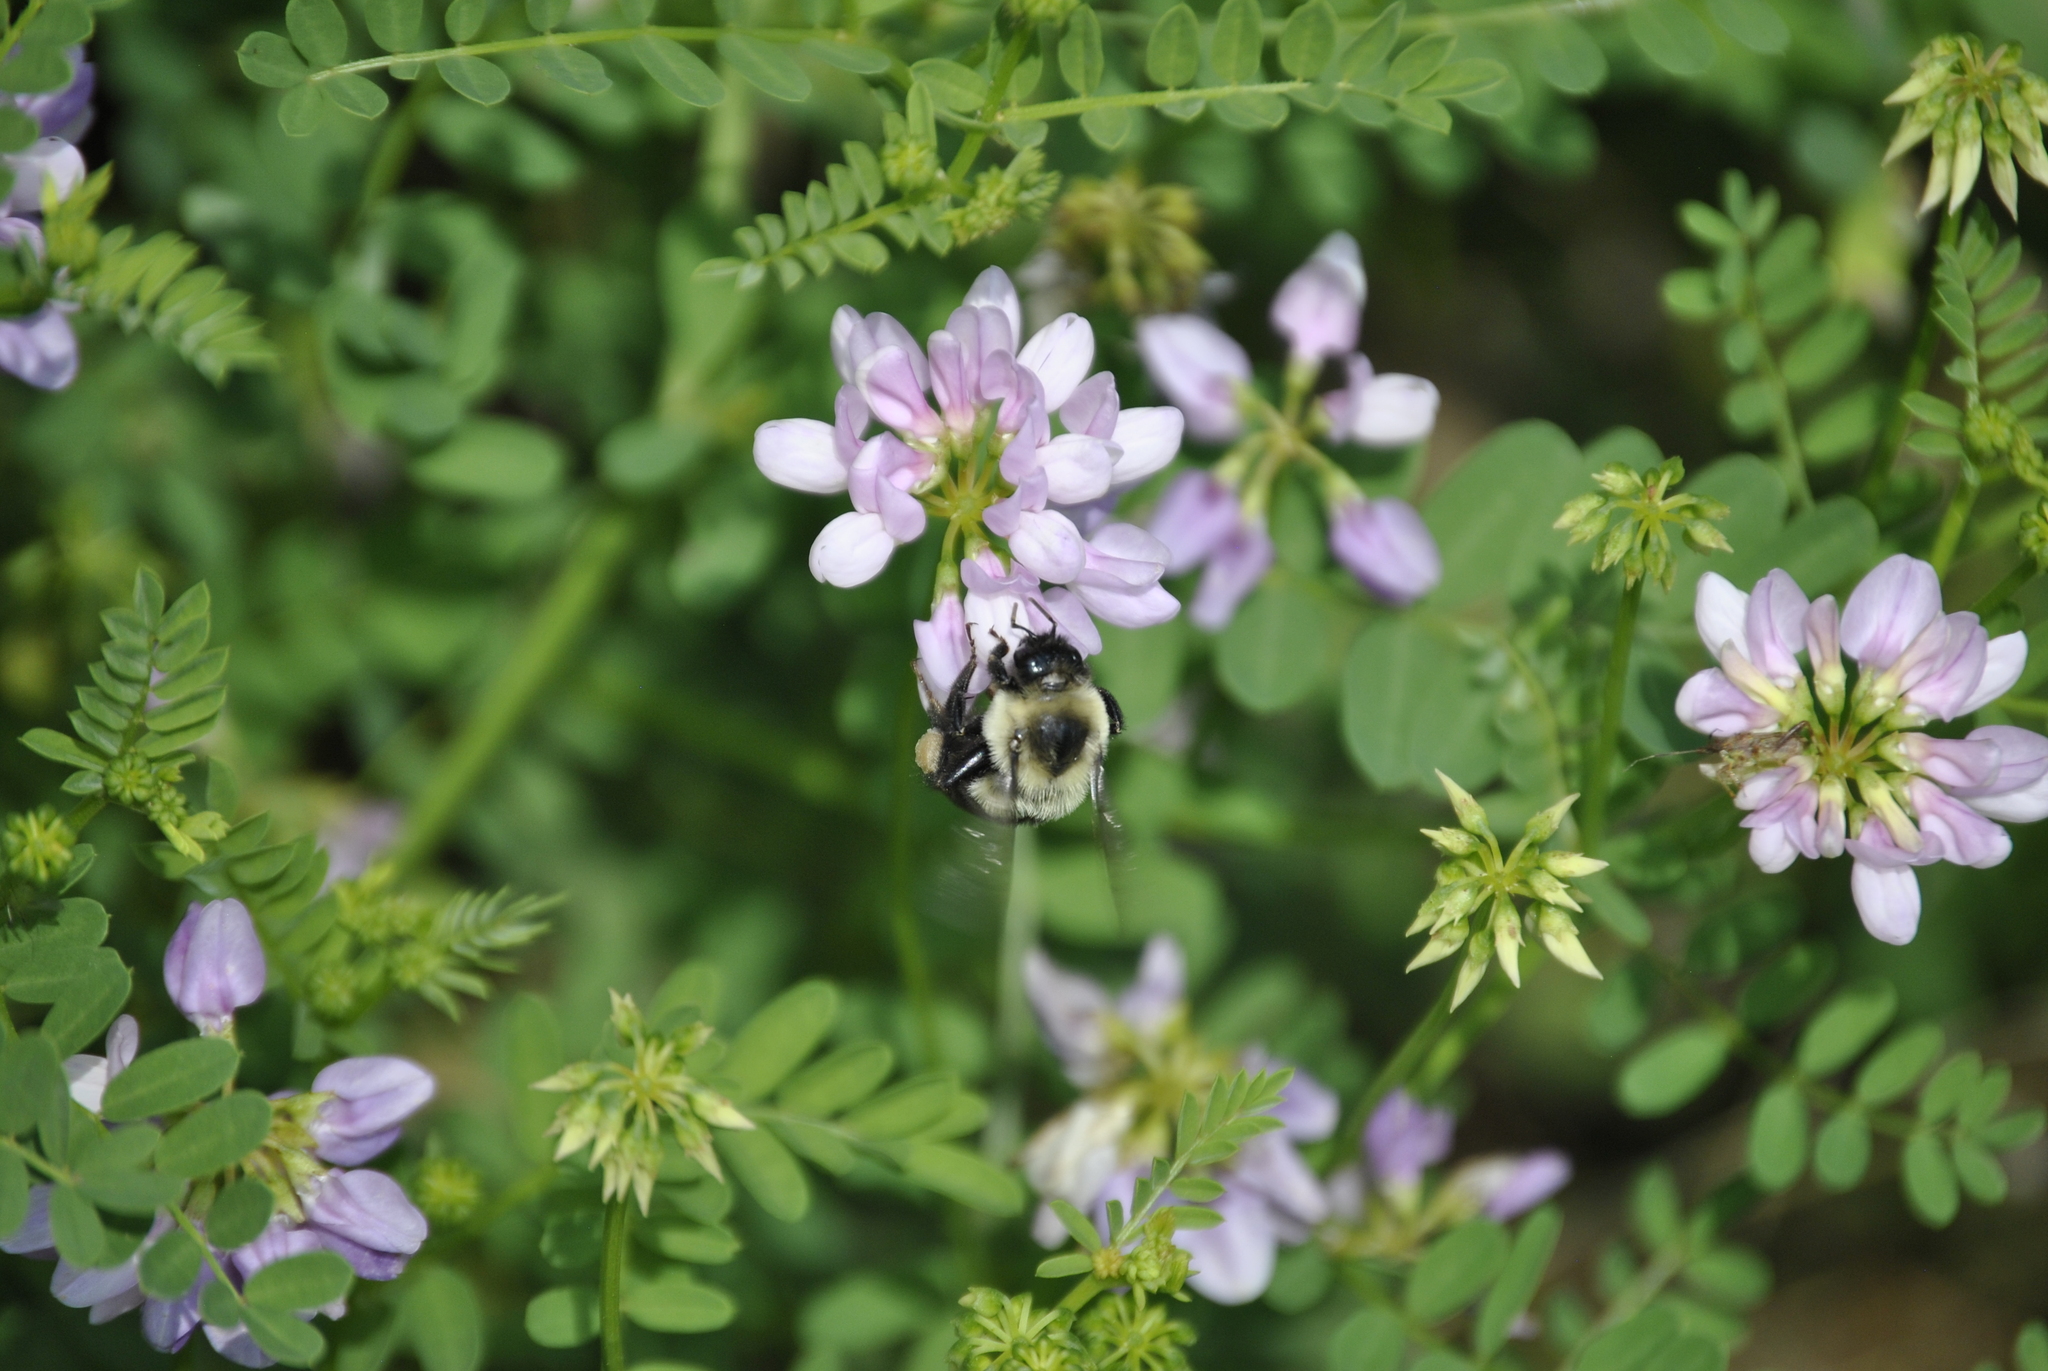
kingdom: Plantae
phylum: Tracheophyta
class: Magnoliopsida
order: Fabales
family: Fabaceae
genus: Coronilla
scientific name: Coronilla varia
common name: Crownvetch
